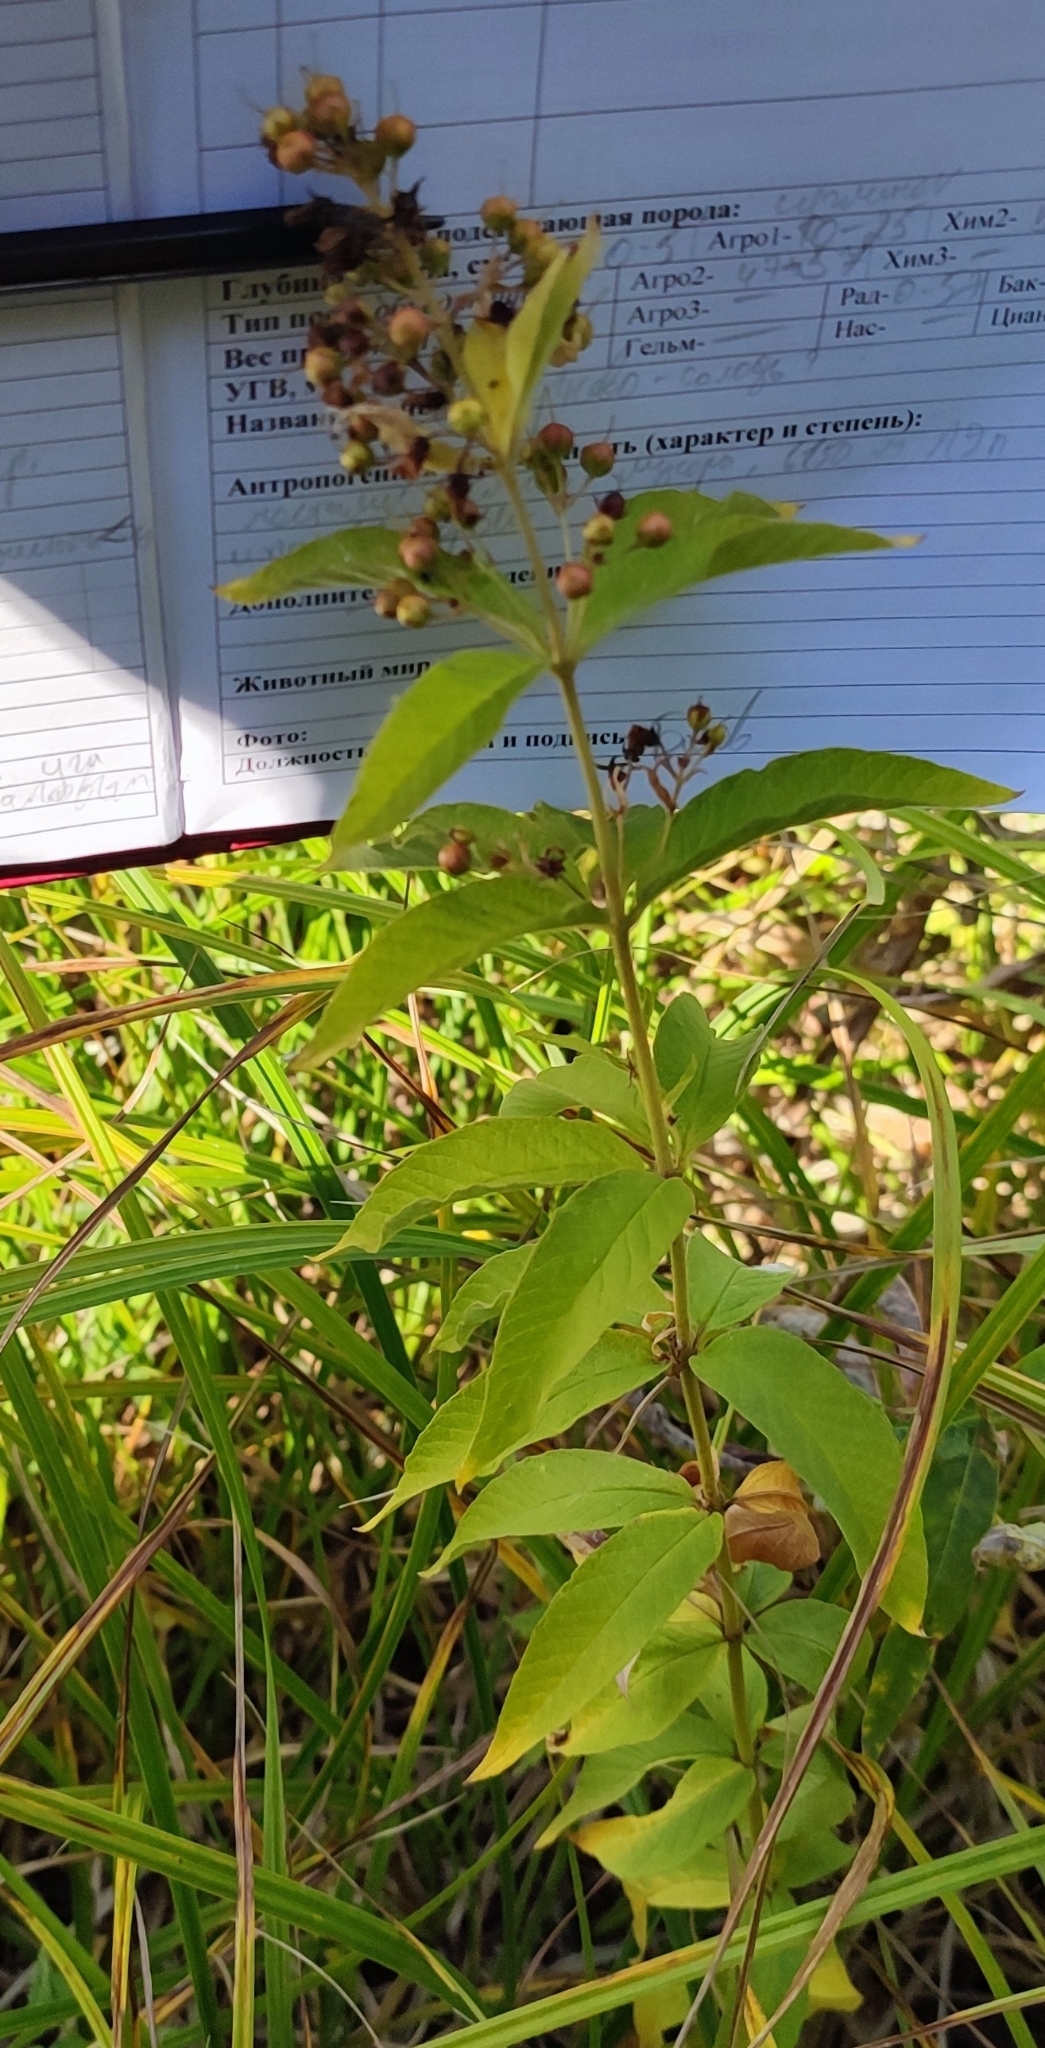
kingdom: Plantae
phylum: Tracheophyta
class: Magnoliopsida
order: Ericales
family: Primulaceae
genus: Lysimachia
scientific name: Lysimachia vulgaris
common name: Yellow loosestrife
